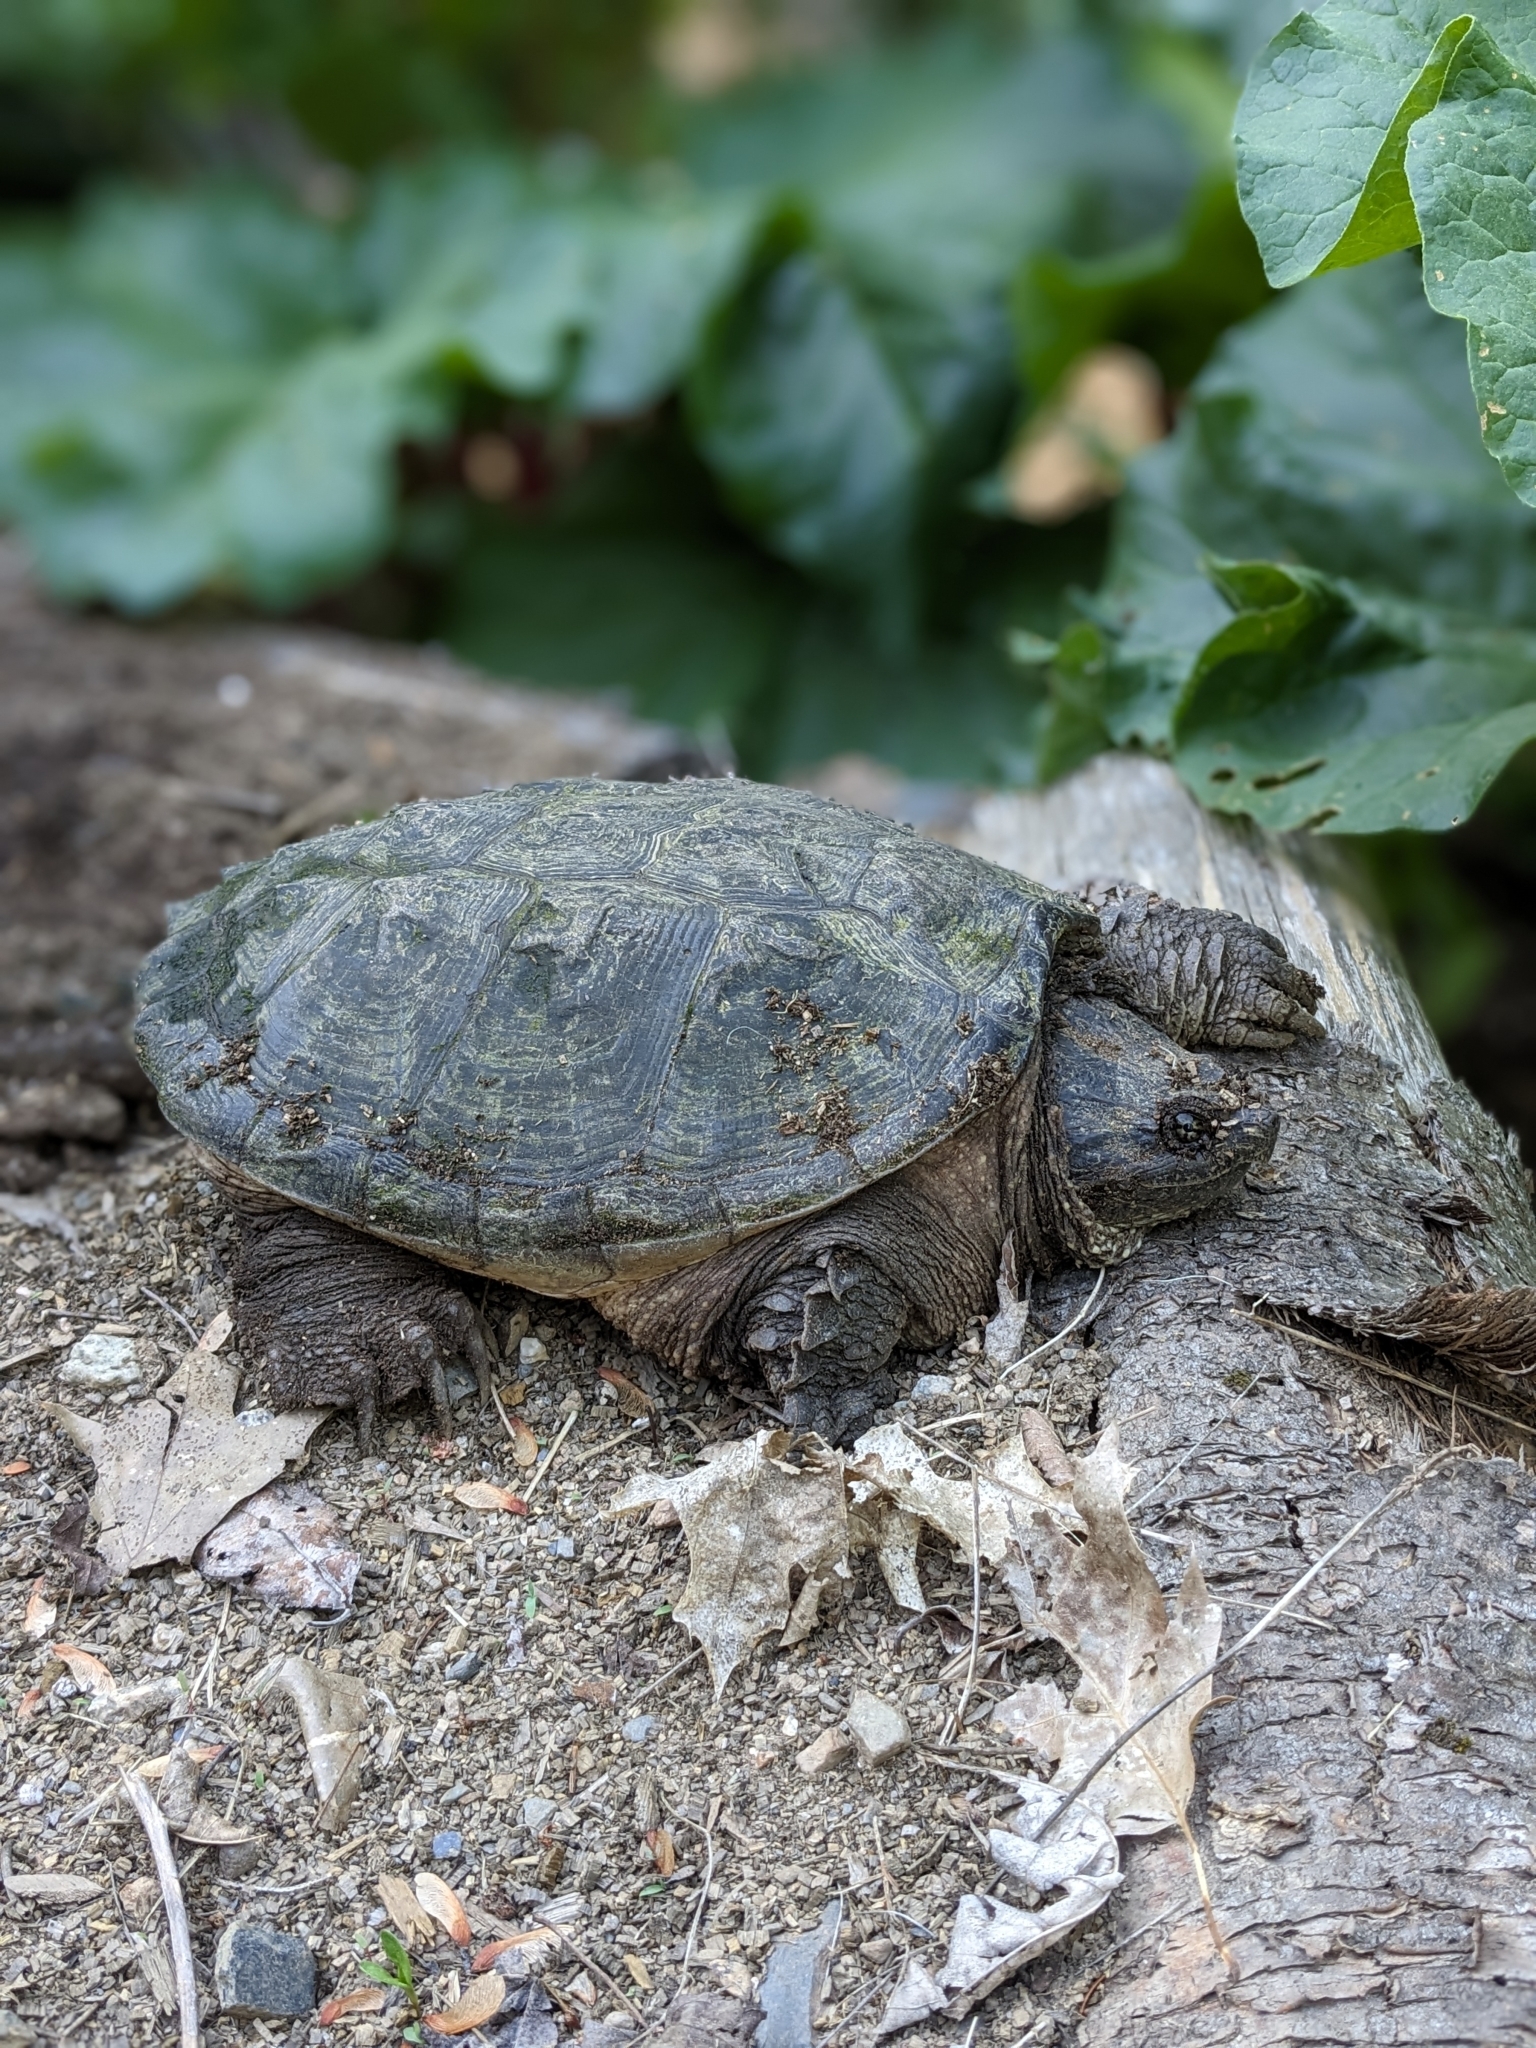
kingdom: Animalia
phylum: Chordata
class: Testudines
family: Chelydridae
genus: Chelydra
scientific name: Chelydra serpentina
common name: Common snapping turtle
